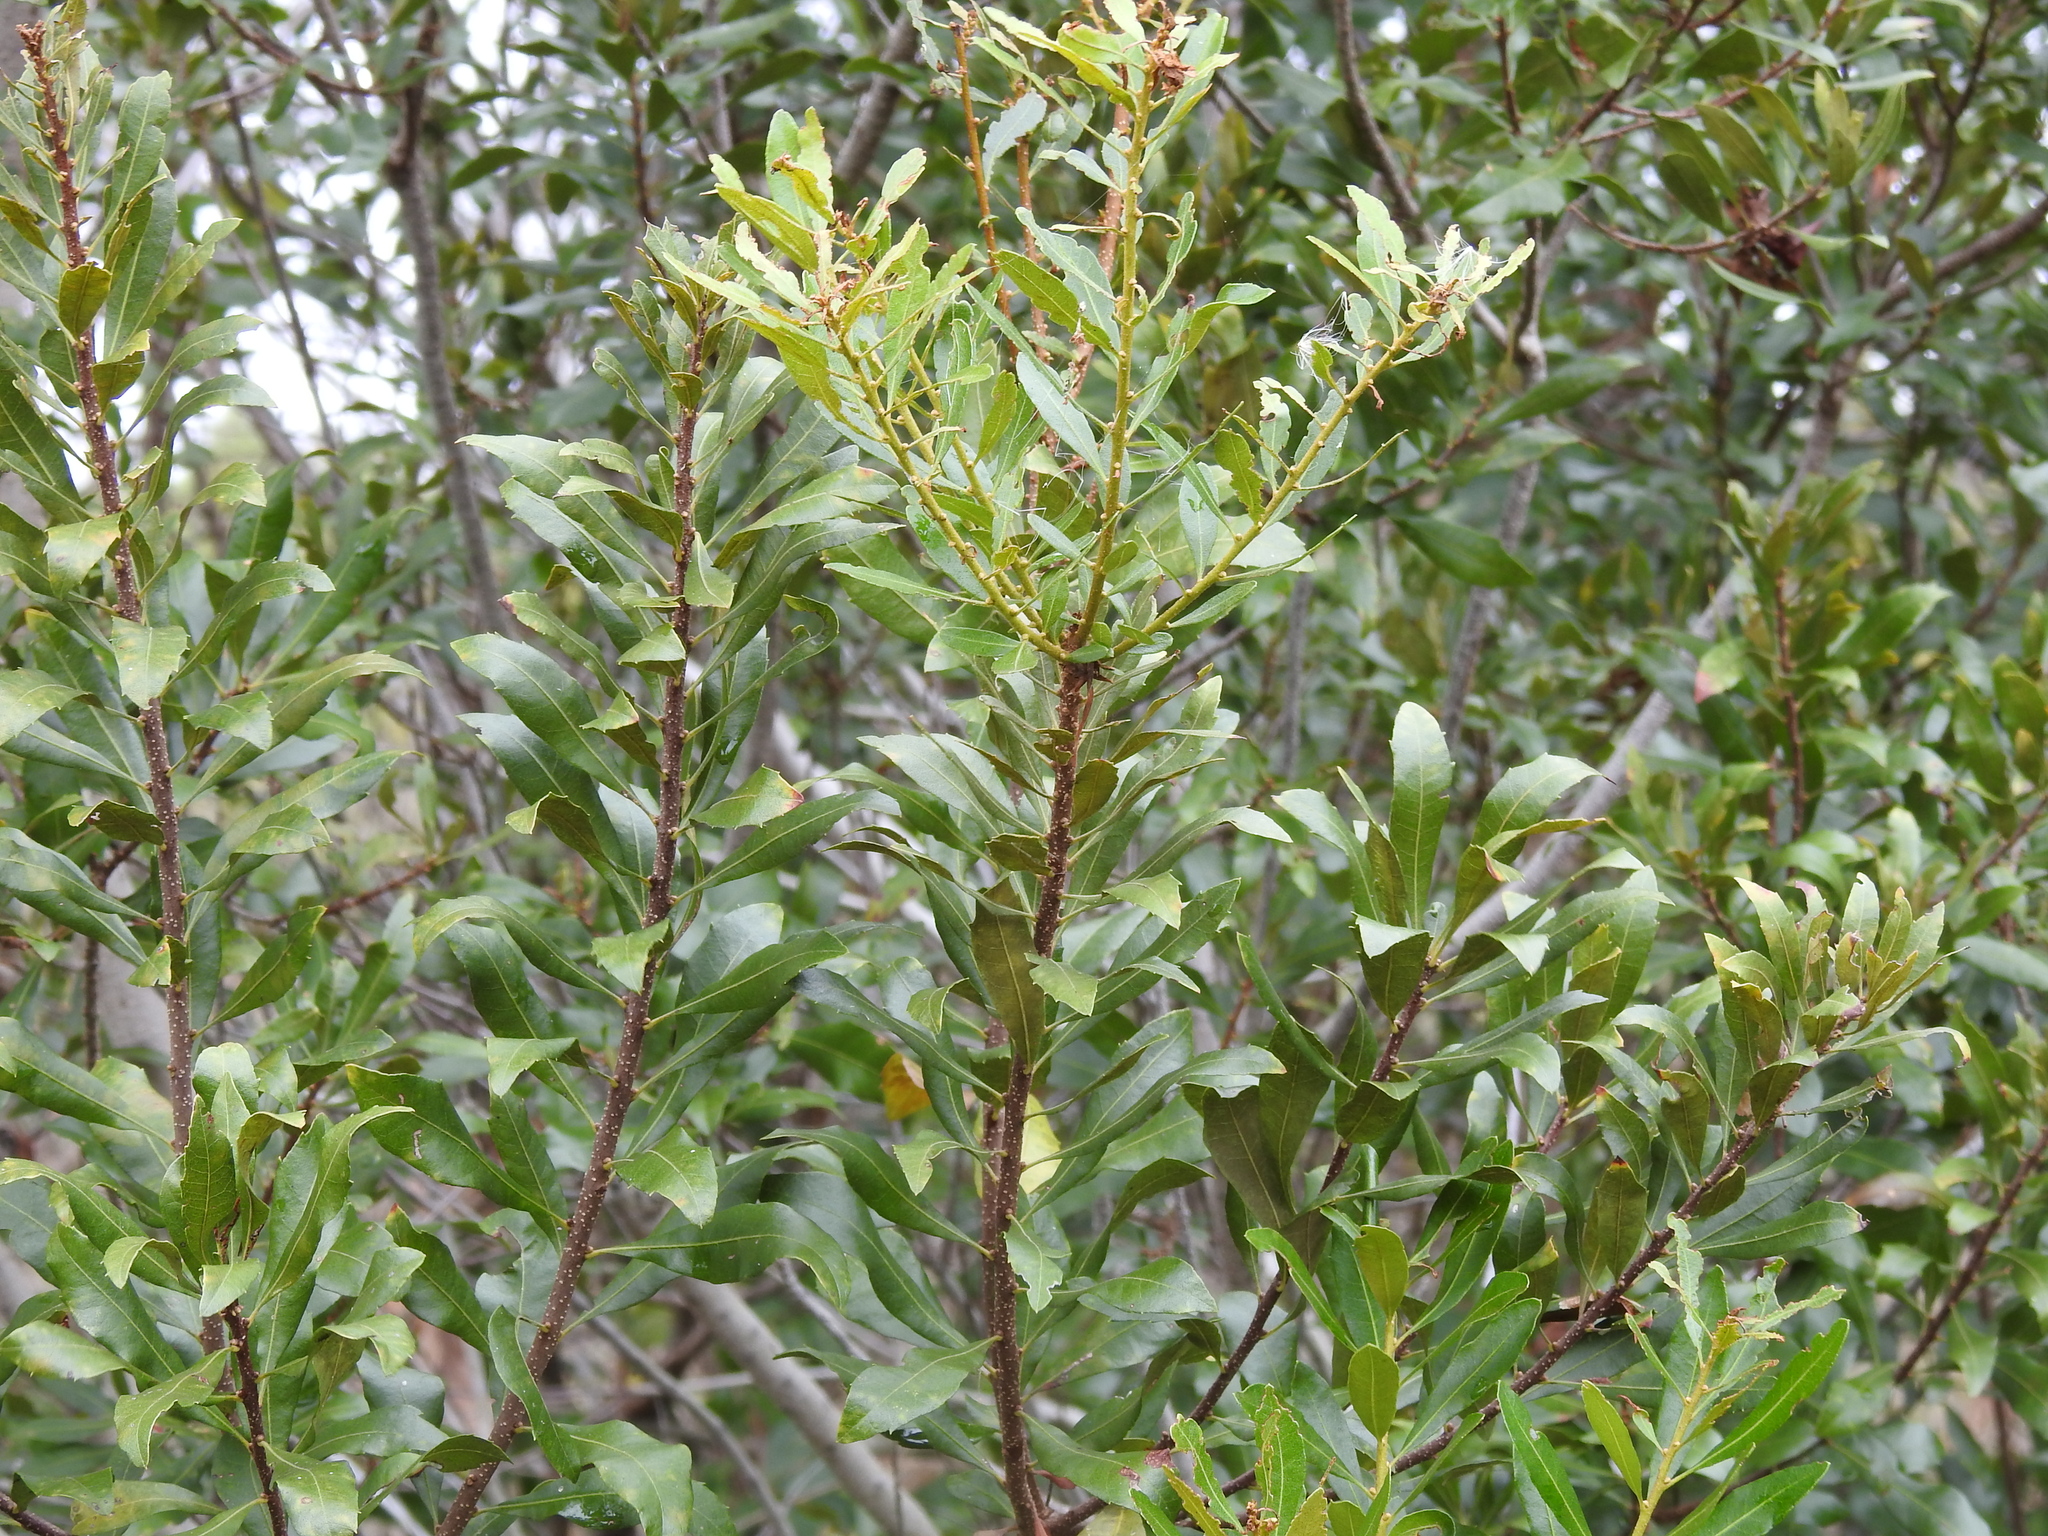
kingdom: Plantae
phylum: Tracheophyta
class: Magnoliopsida
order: Fagales
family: Myricaceae
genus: Morella
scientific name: Morella cerifera
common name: Wax myrtle
